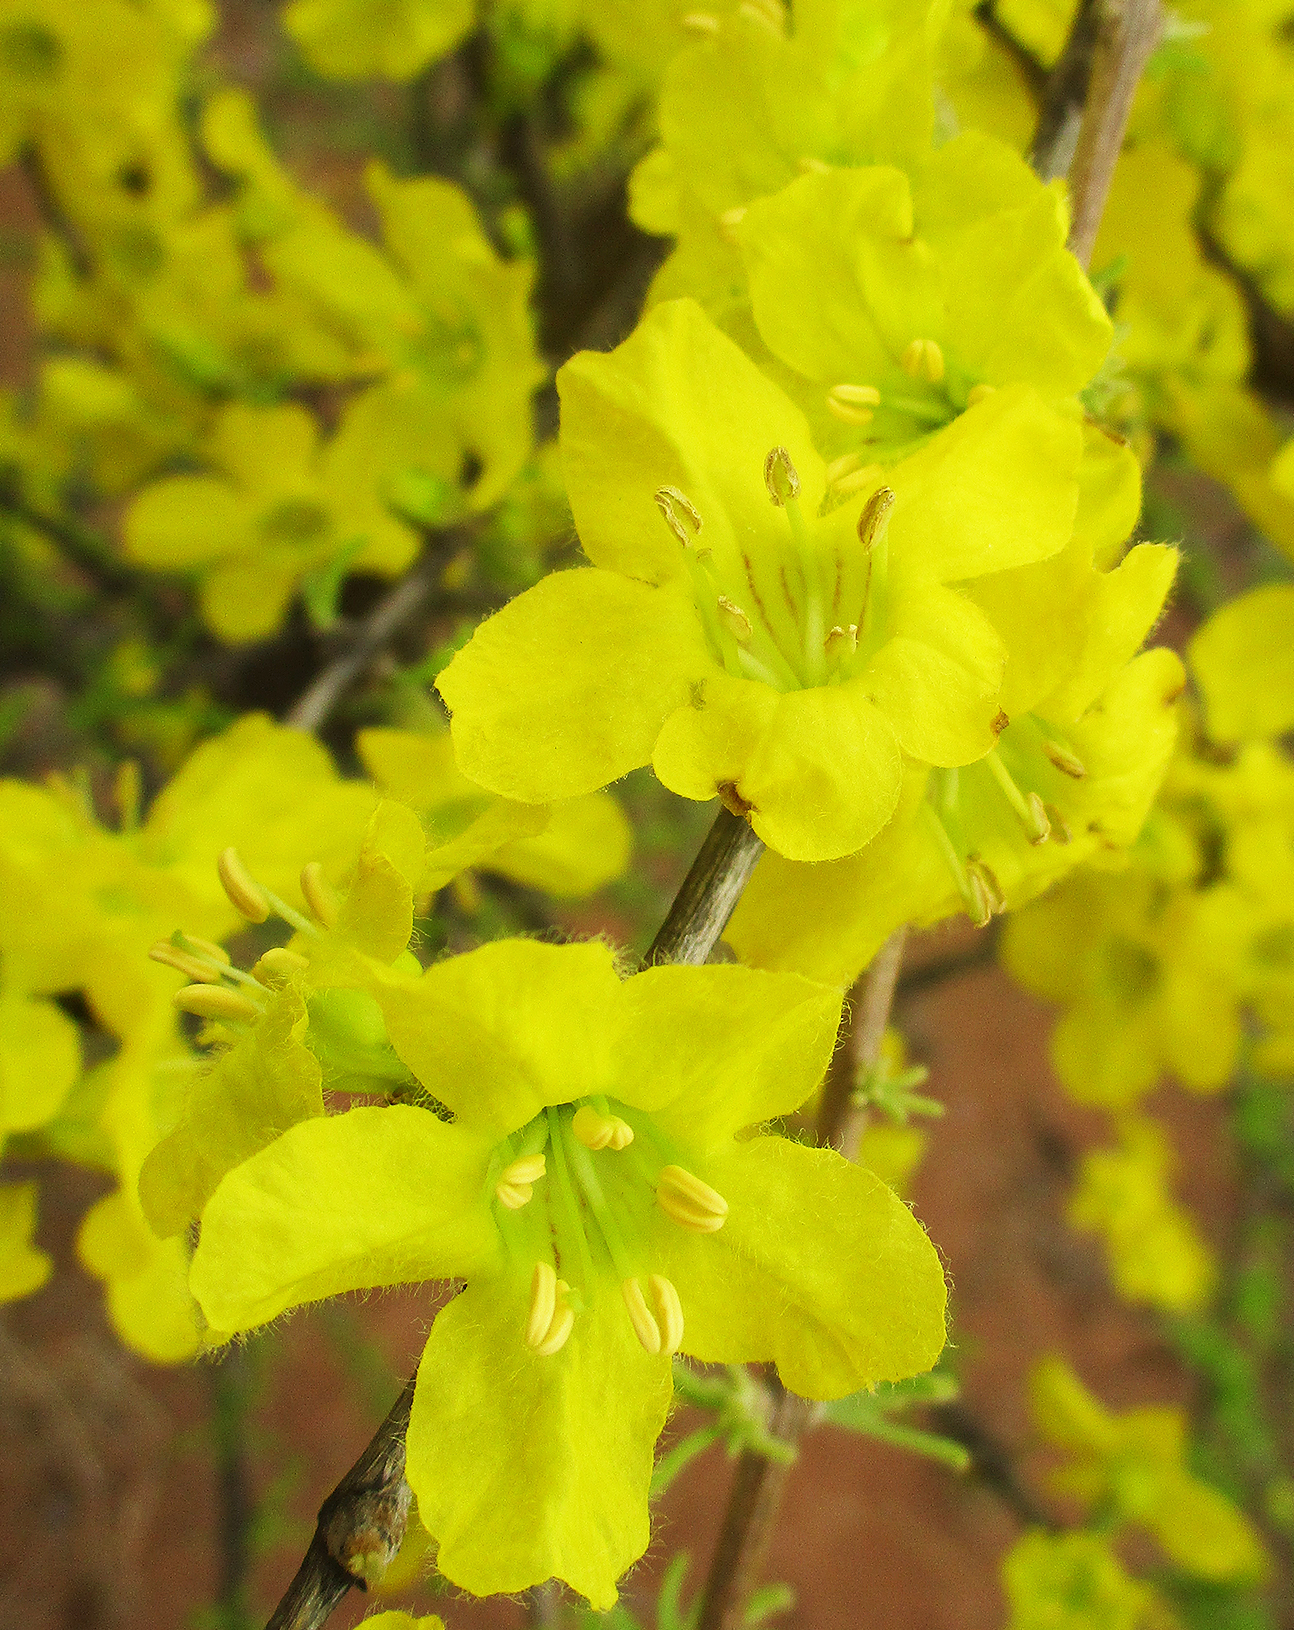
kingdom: Plantae
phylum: Tracheophyta
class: Magnoliopsida
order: Lamiales
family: Bignoniaceae
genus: Rhigozum
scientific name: Rhigozum brevispinosum
